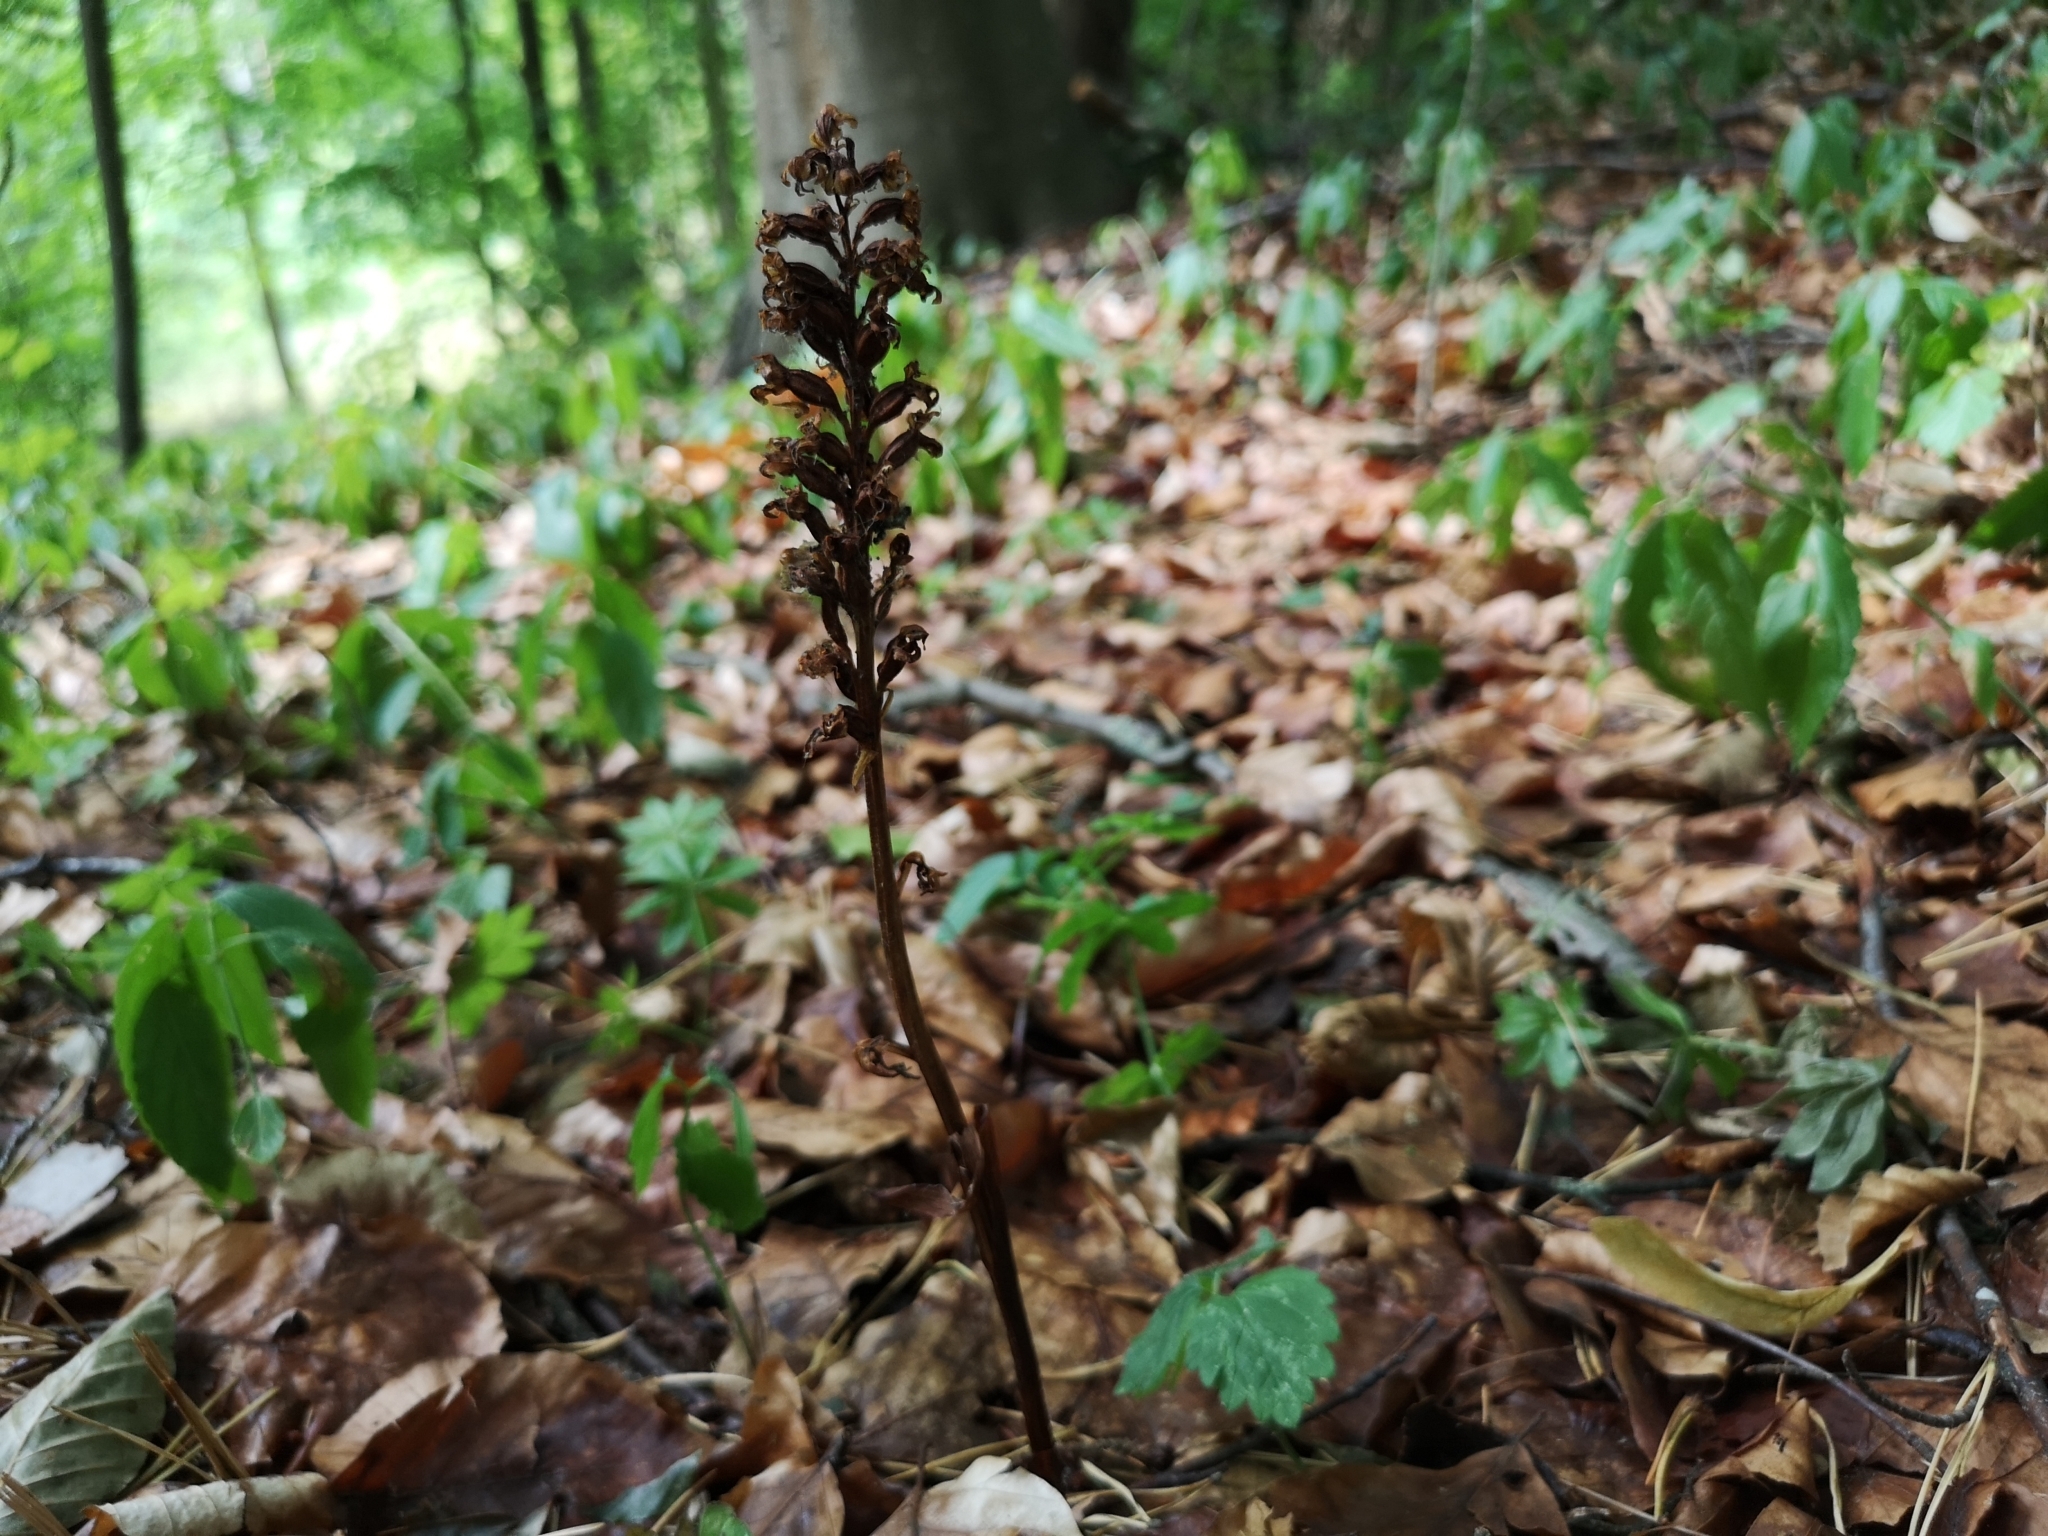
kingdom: Plantae
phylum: Tracheophyta
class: Liliopsida
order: Asparagales
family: Orchidaceae
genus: Neottia
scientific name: Neottia nidus-avis
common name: Bird's-nest orchid
